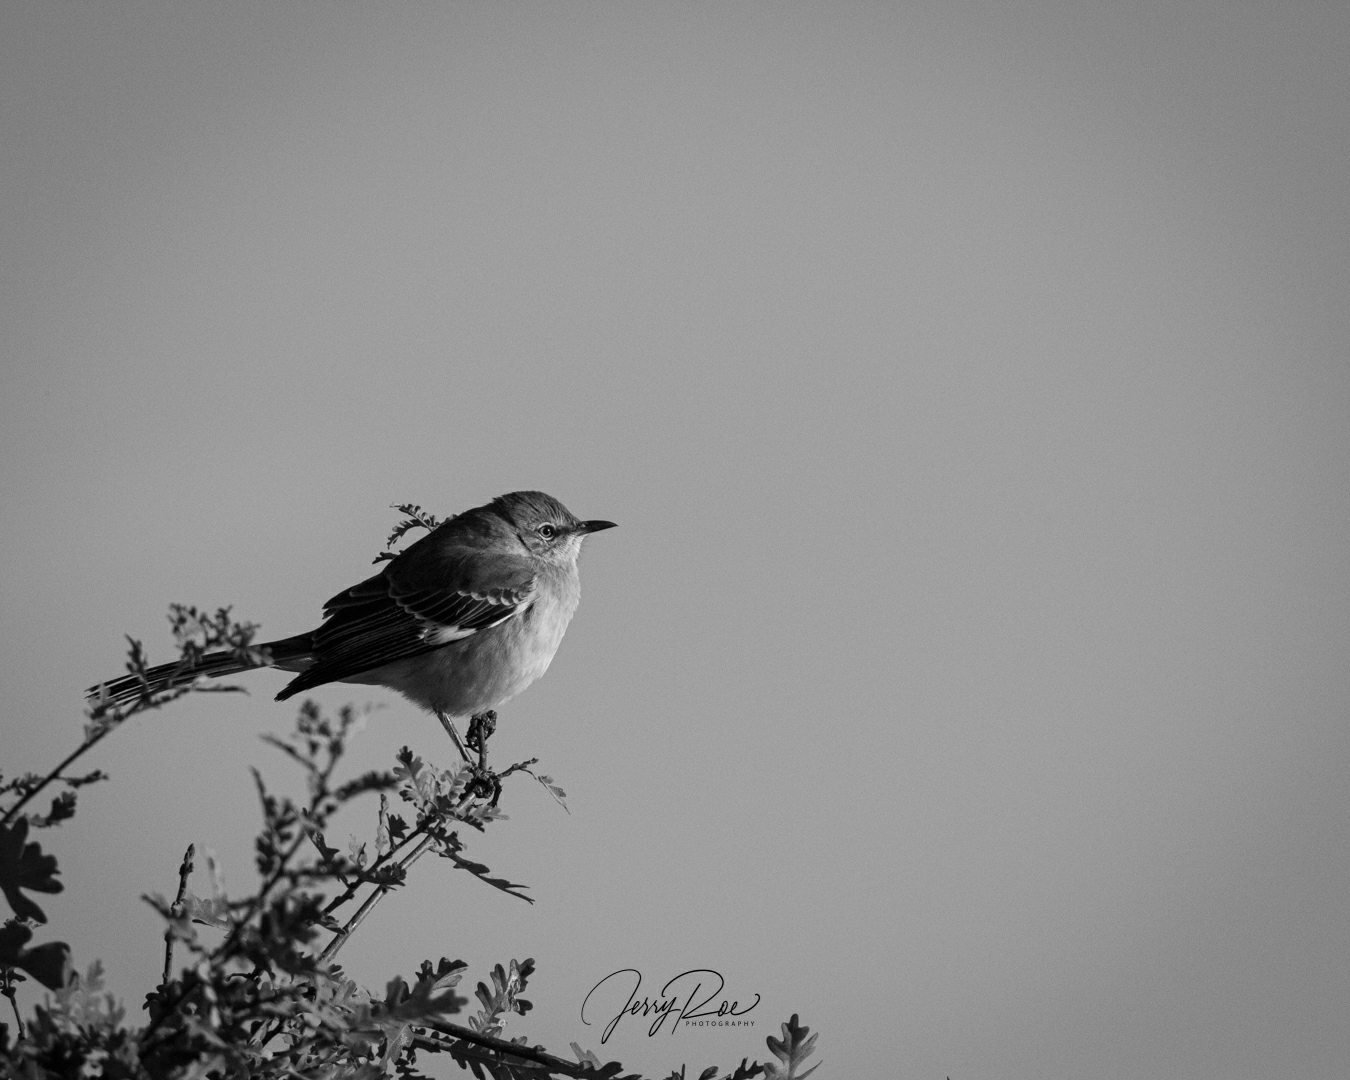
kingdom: Animalia
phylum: Chordata
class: Aves
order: Passeriformes
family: Mimidae
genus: Mimus
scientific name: Mimus polyglottos
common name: Northern mockingbird
